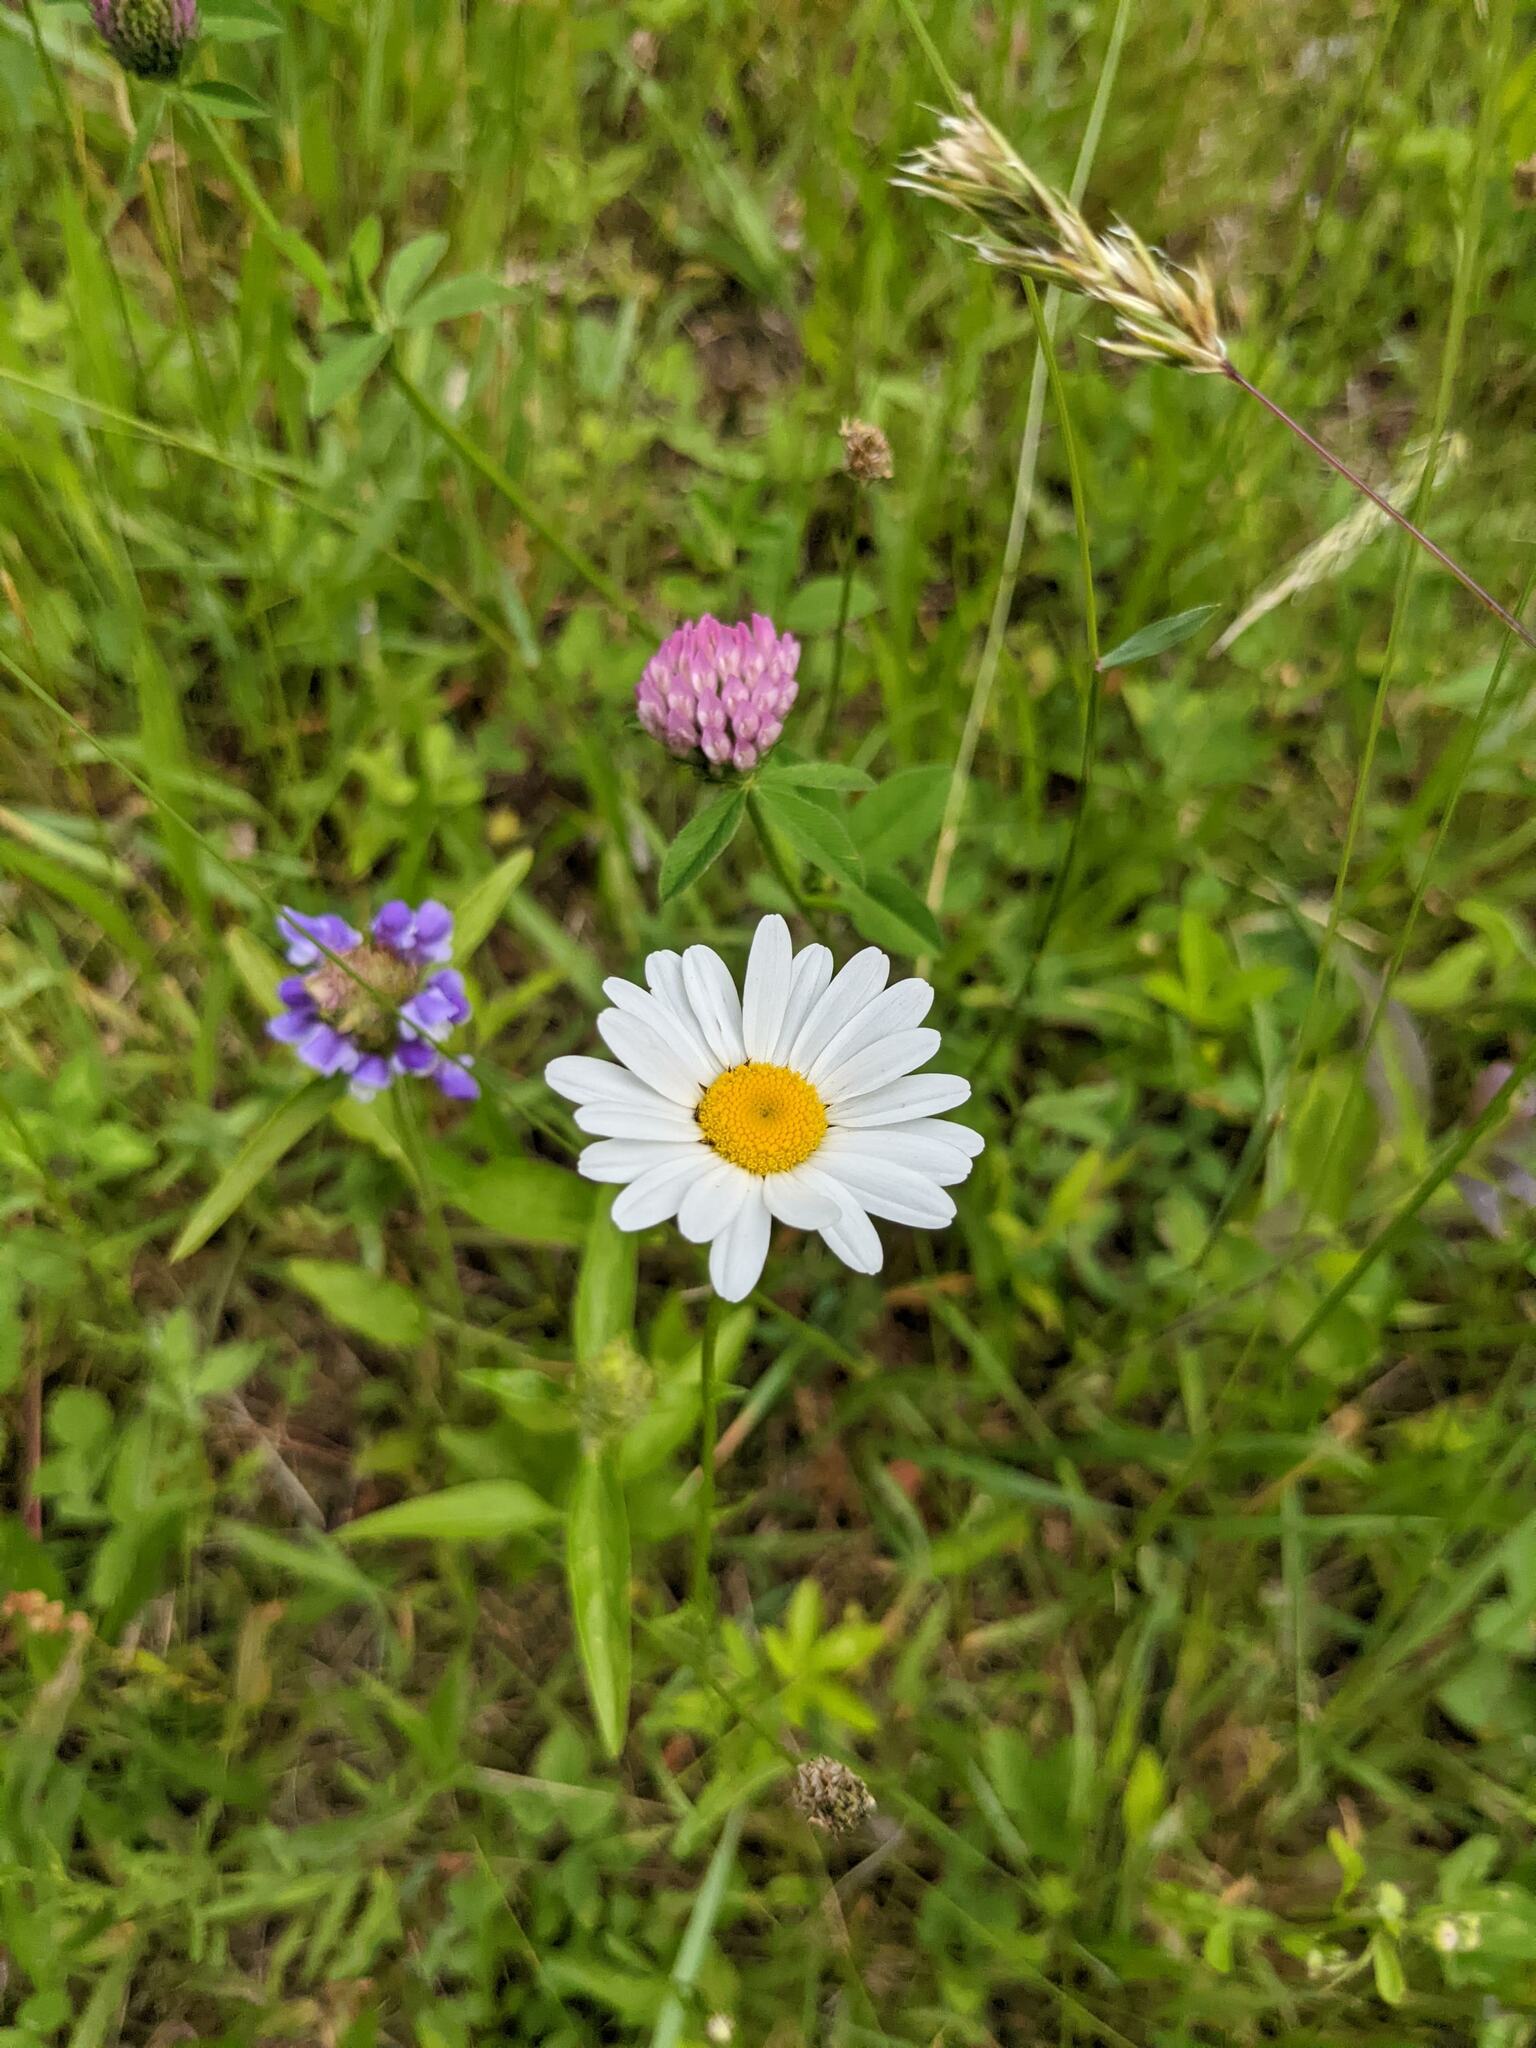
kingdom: Plantae
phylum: Tracheophyta
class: Magnoliopsida
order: Asterales
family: Asteraceae
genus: Leucanthemum
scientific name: Leucanthemum vulgare
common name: Oxeye daisy
